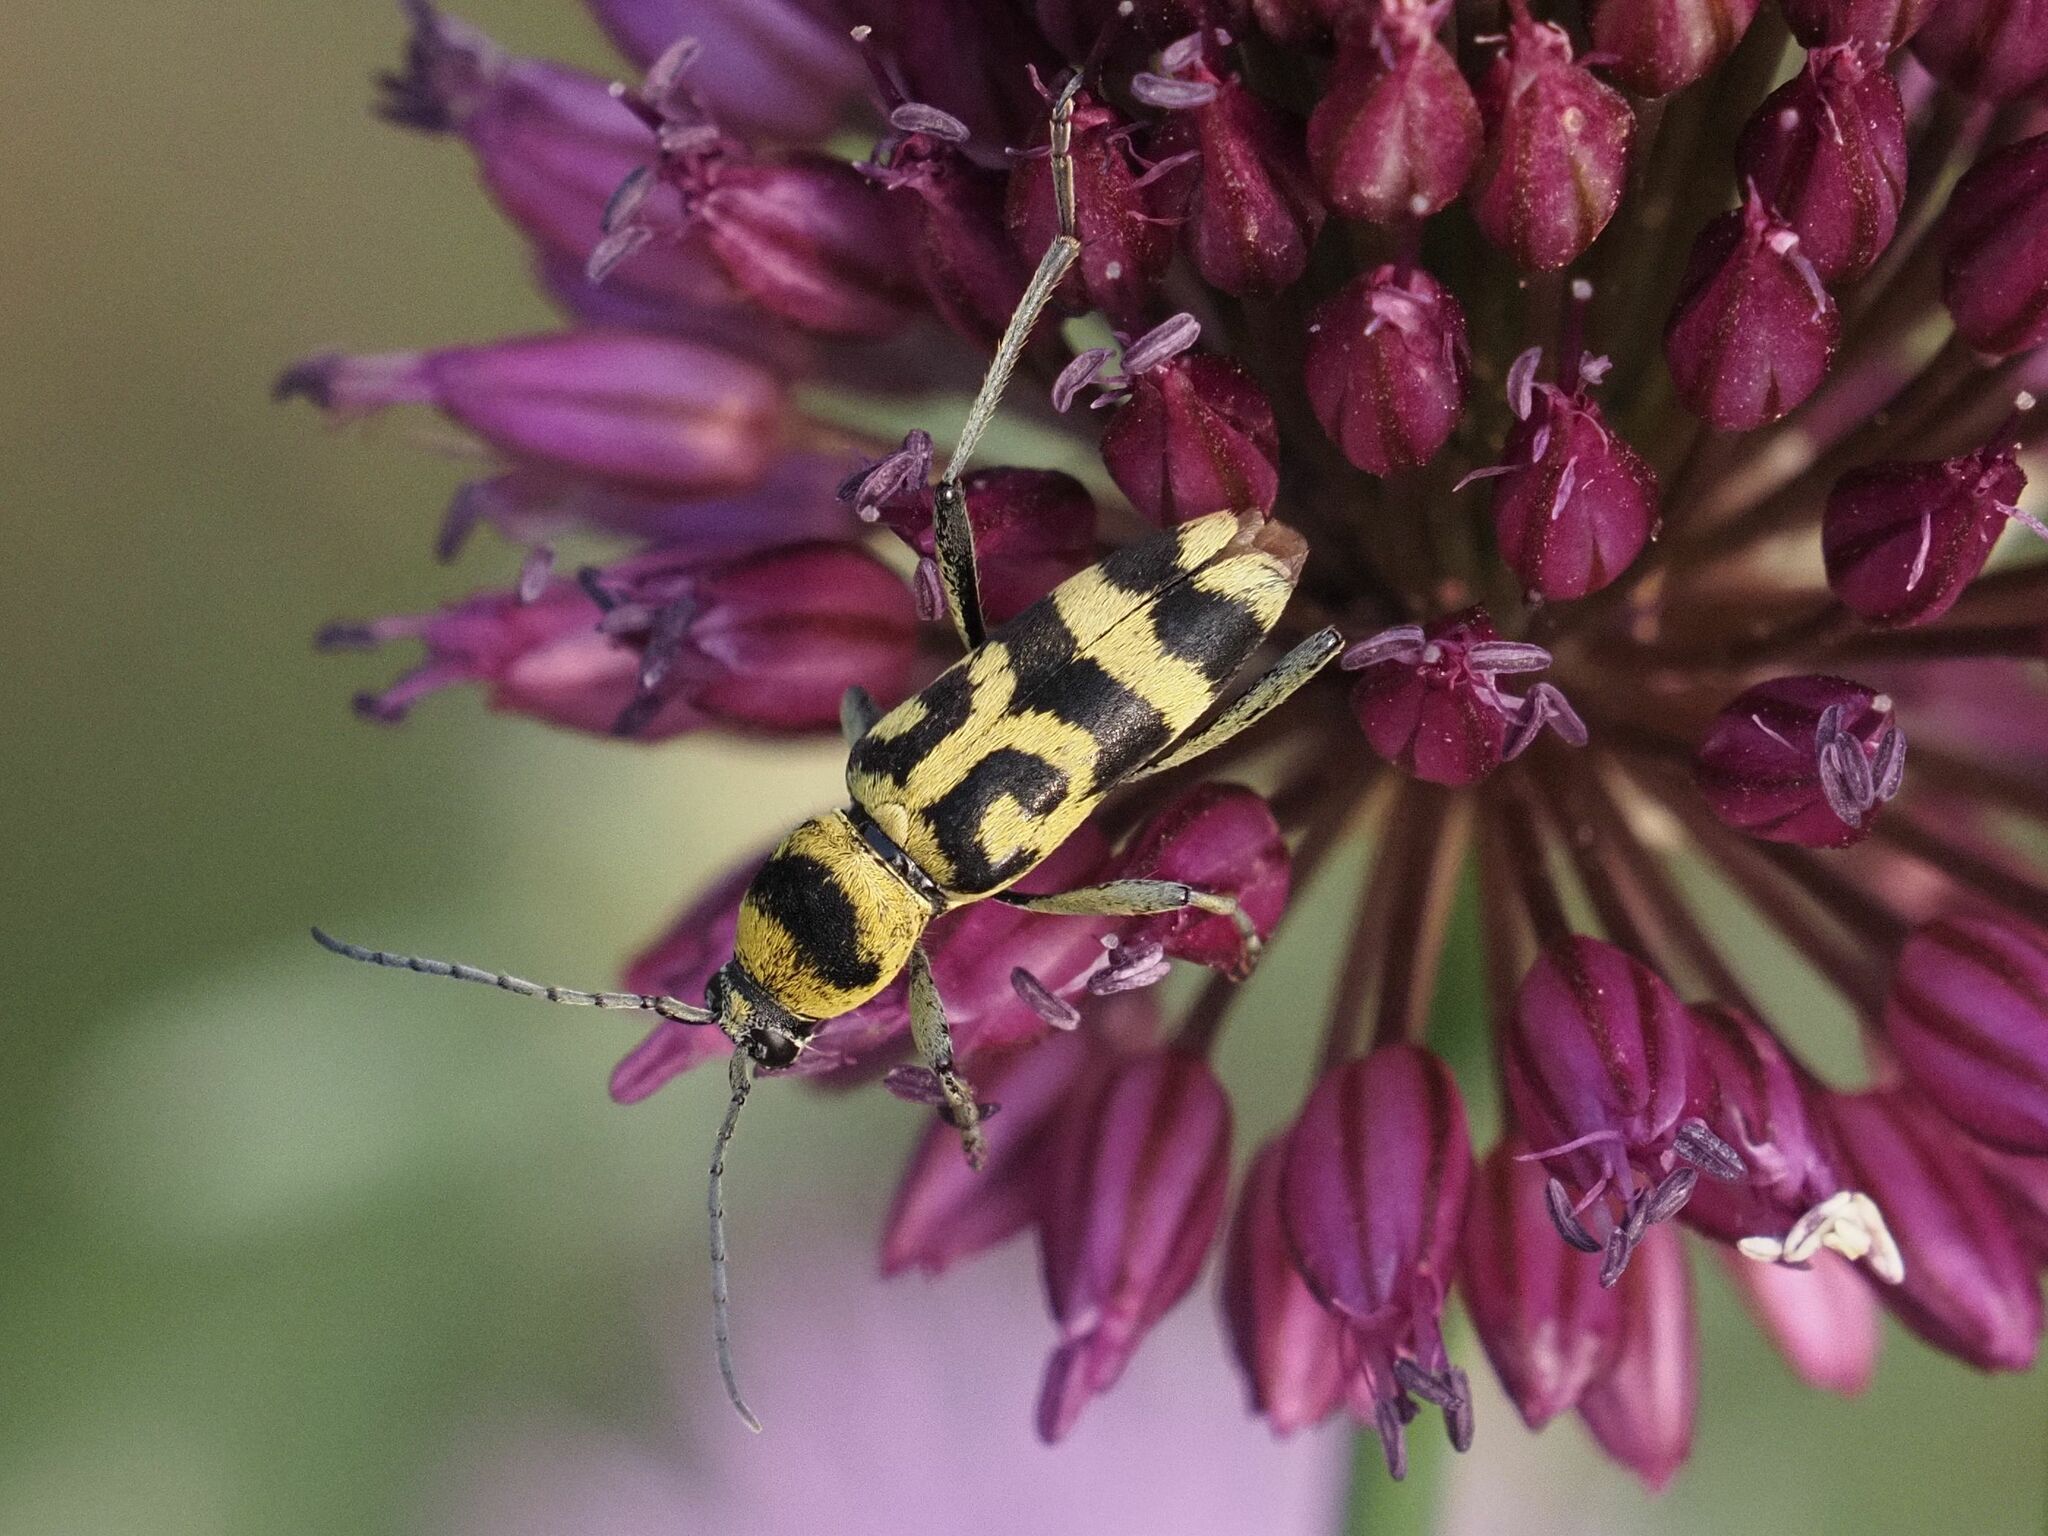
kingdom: Animalia
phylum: Arthropoda
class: Insecta
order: Coleoptera
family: Cerambycidae
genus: Chlorophorus
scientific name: Chlorophorus varius
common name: Grape wood borer
